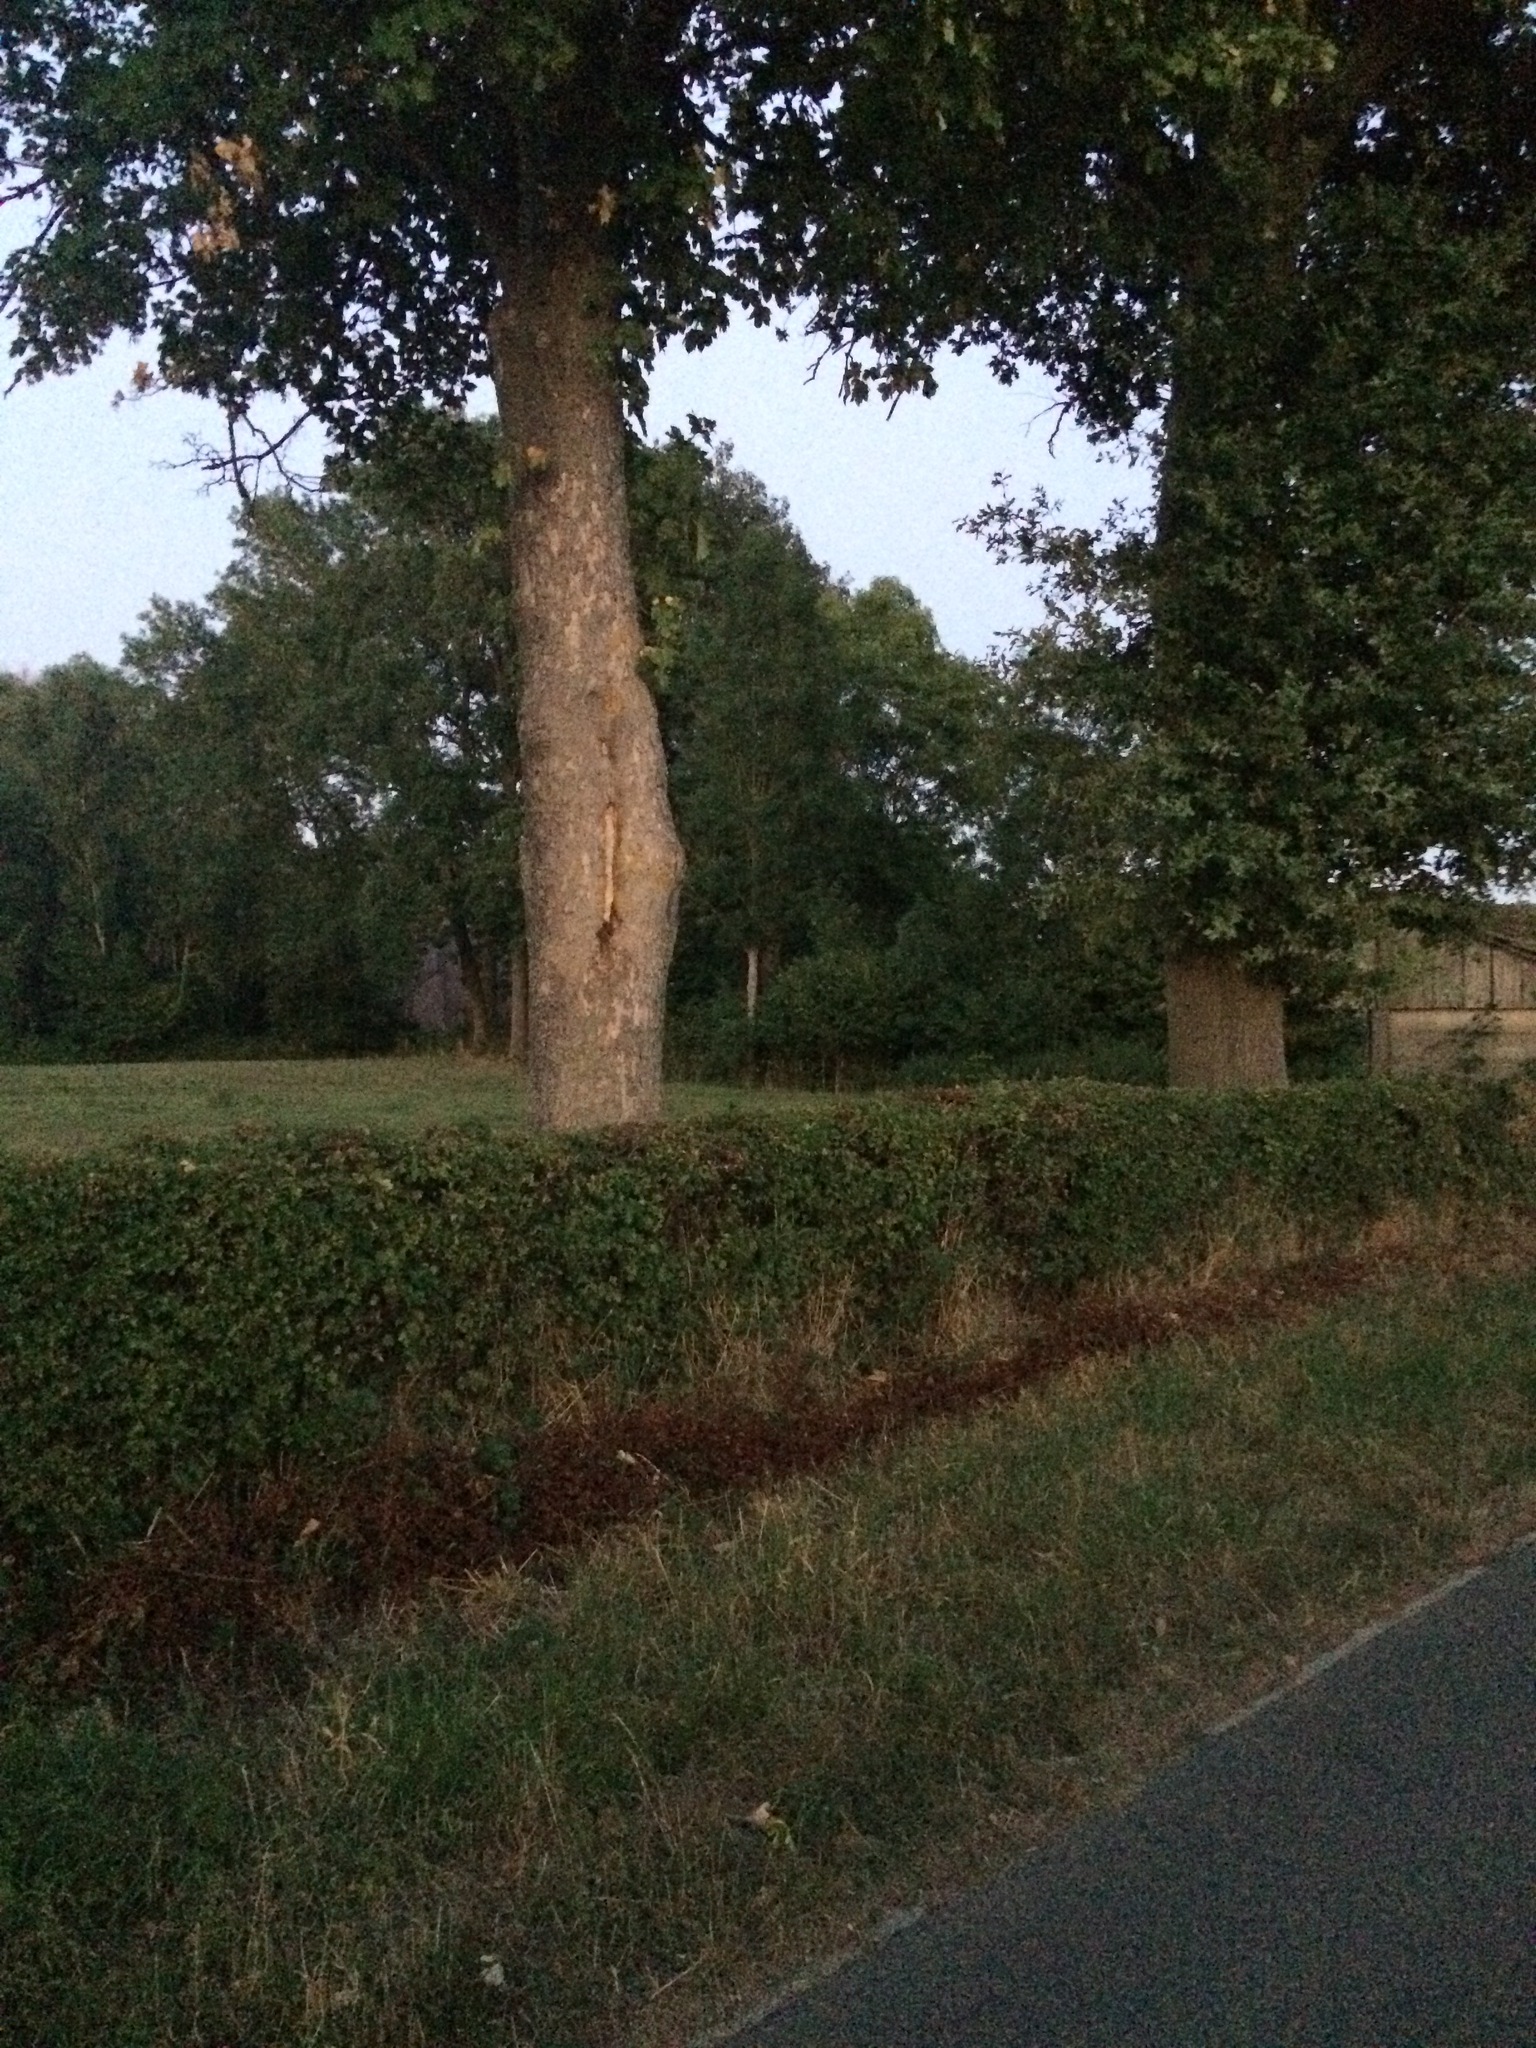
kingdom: Animalia
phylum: Arthropoda
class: Insecta
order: Hymenoptera
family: Vespidae
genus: Vespa
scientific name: Vespa crabro
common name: Hornet
